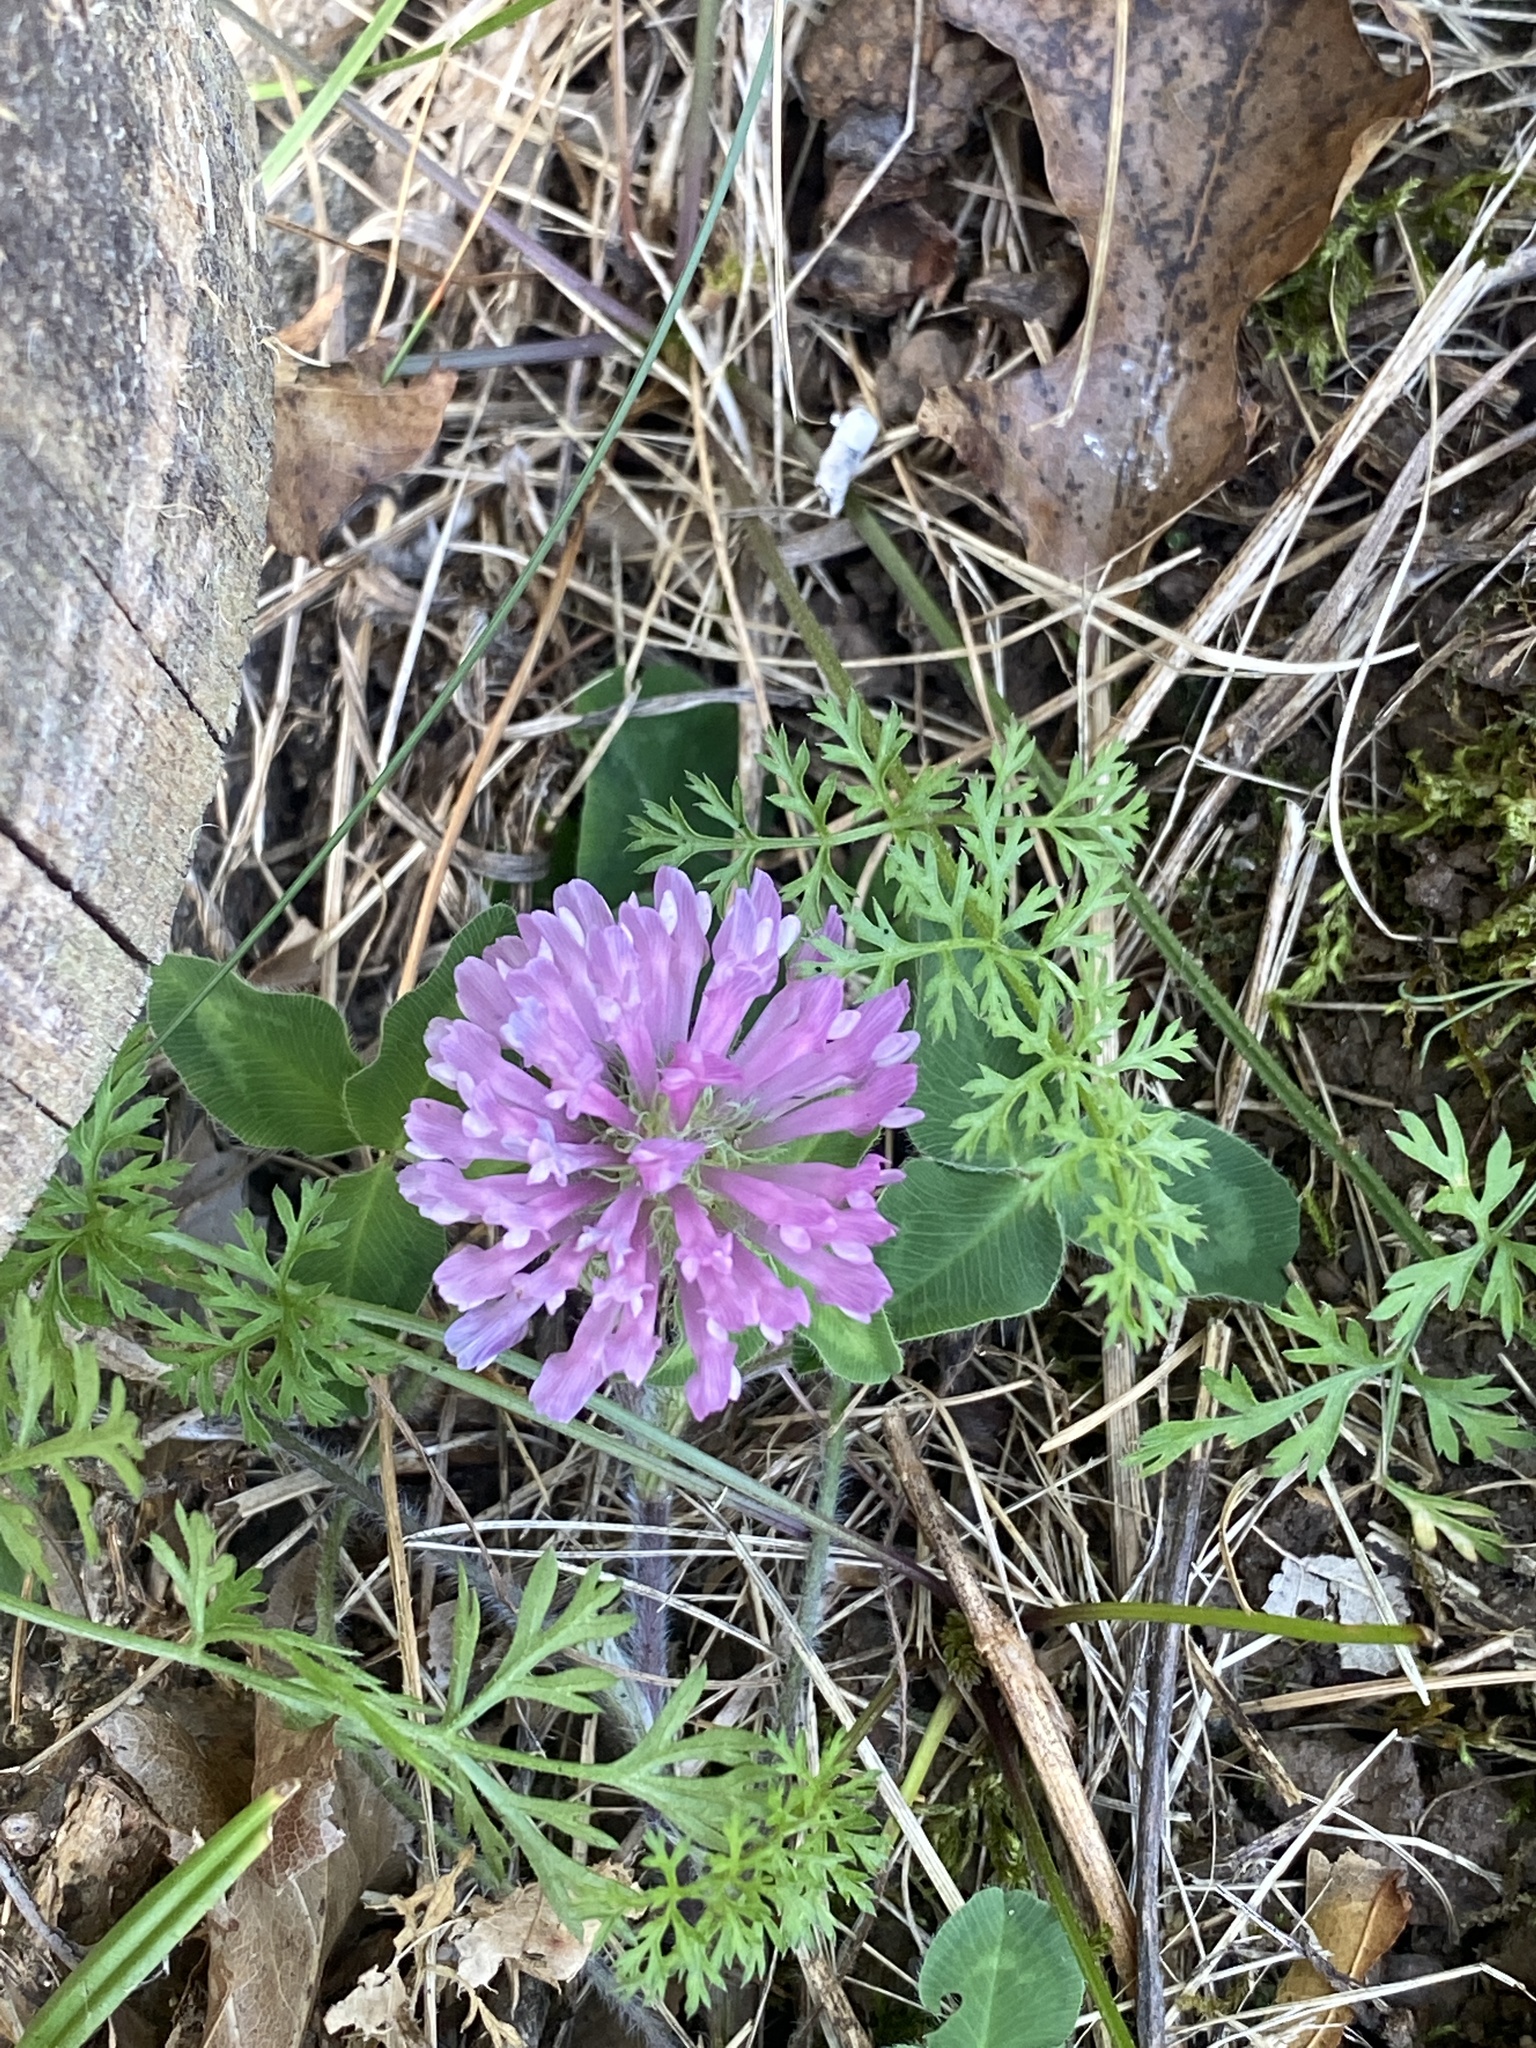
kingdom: Plantae
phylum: Tracheophyta
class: Magnoliopsida
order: Fabales
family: Fabaceae
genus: Trifolium
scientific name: Trifolium pratense
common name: Red clover
